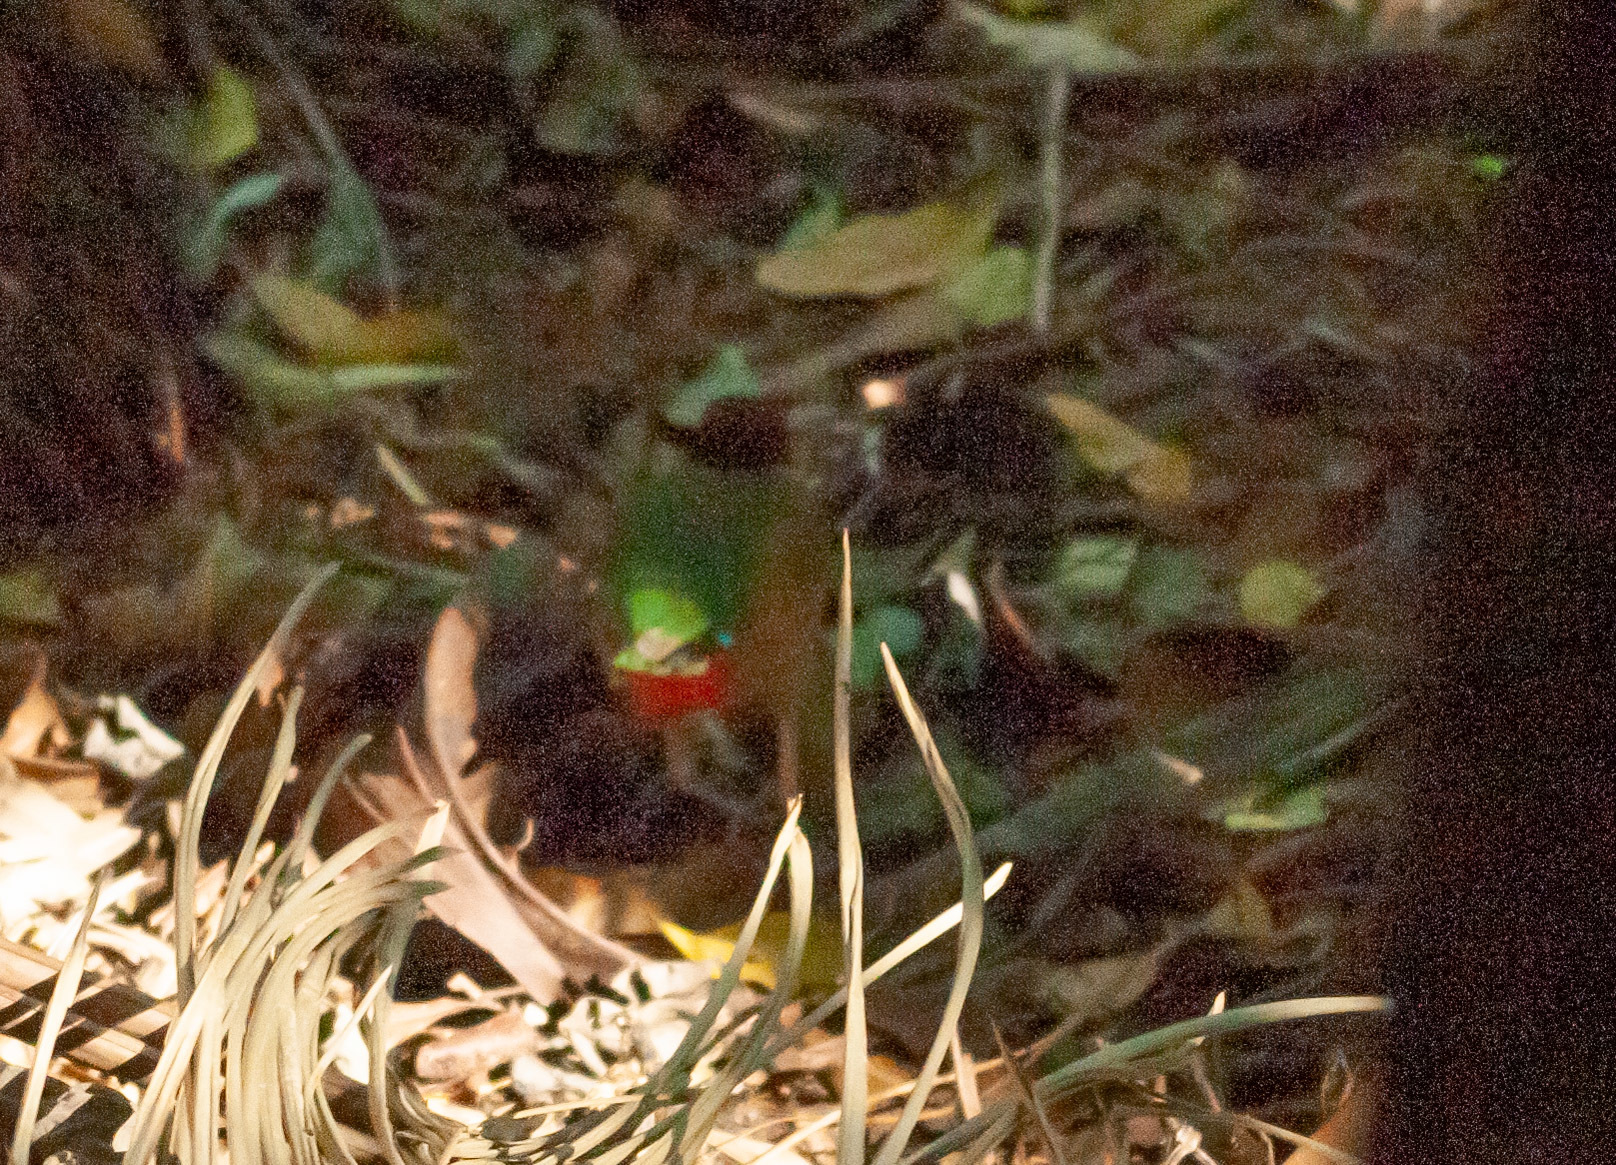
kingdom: Animalia
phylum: Chordata
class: Aves
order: Passeriformes
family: Pittidae
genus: Pitta
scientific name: Pitta versicolor
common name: Noisy pitta
